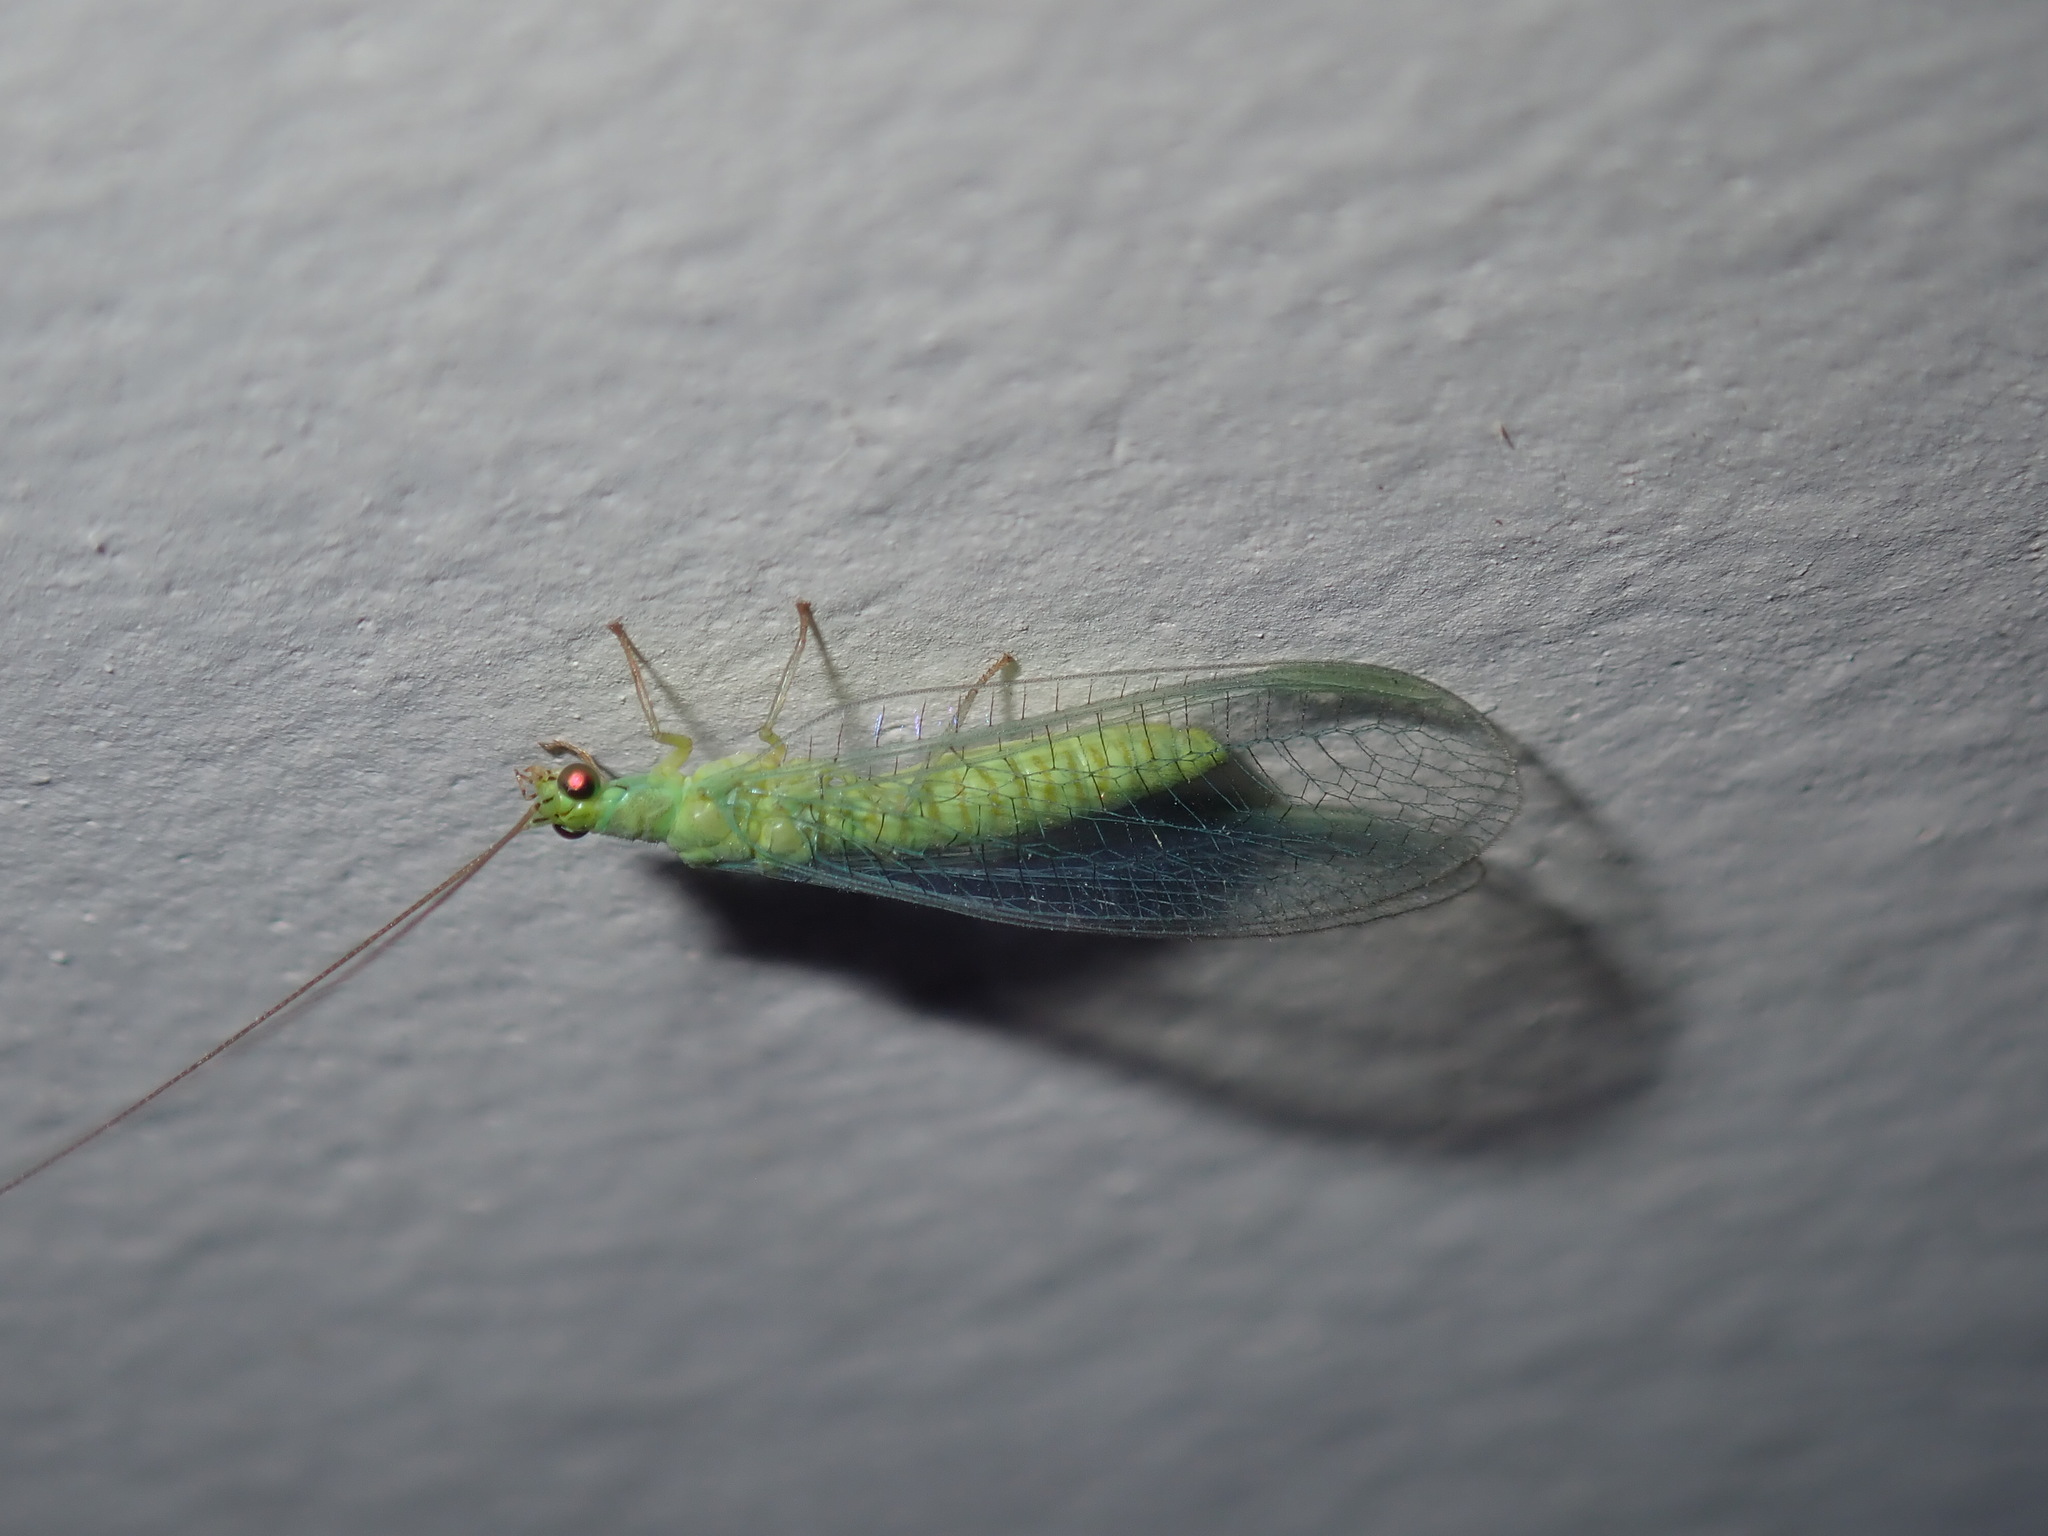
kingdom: Animalia
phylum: Arthropoda
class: Insecta
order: Neuroptera
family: Chrysopidae
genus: Mallada
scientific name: Mallada signatus
